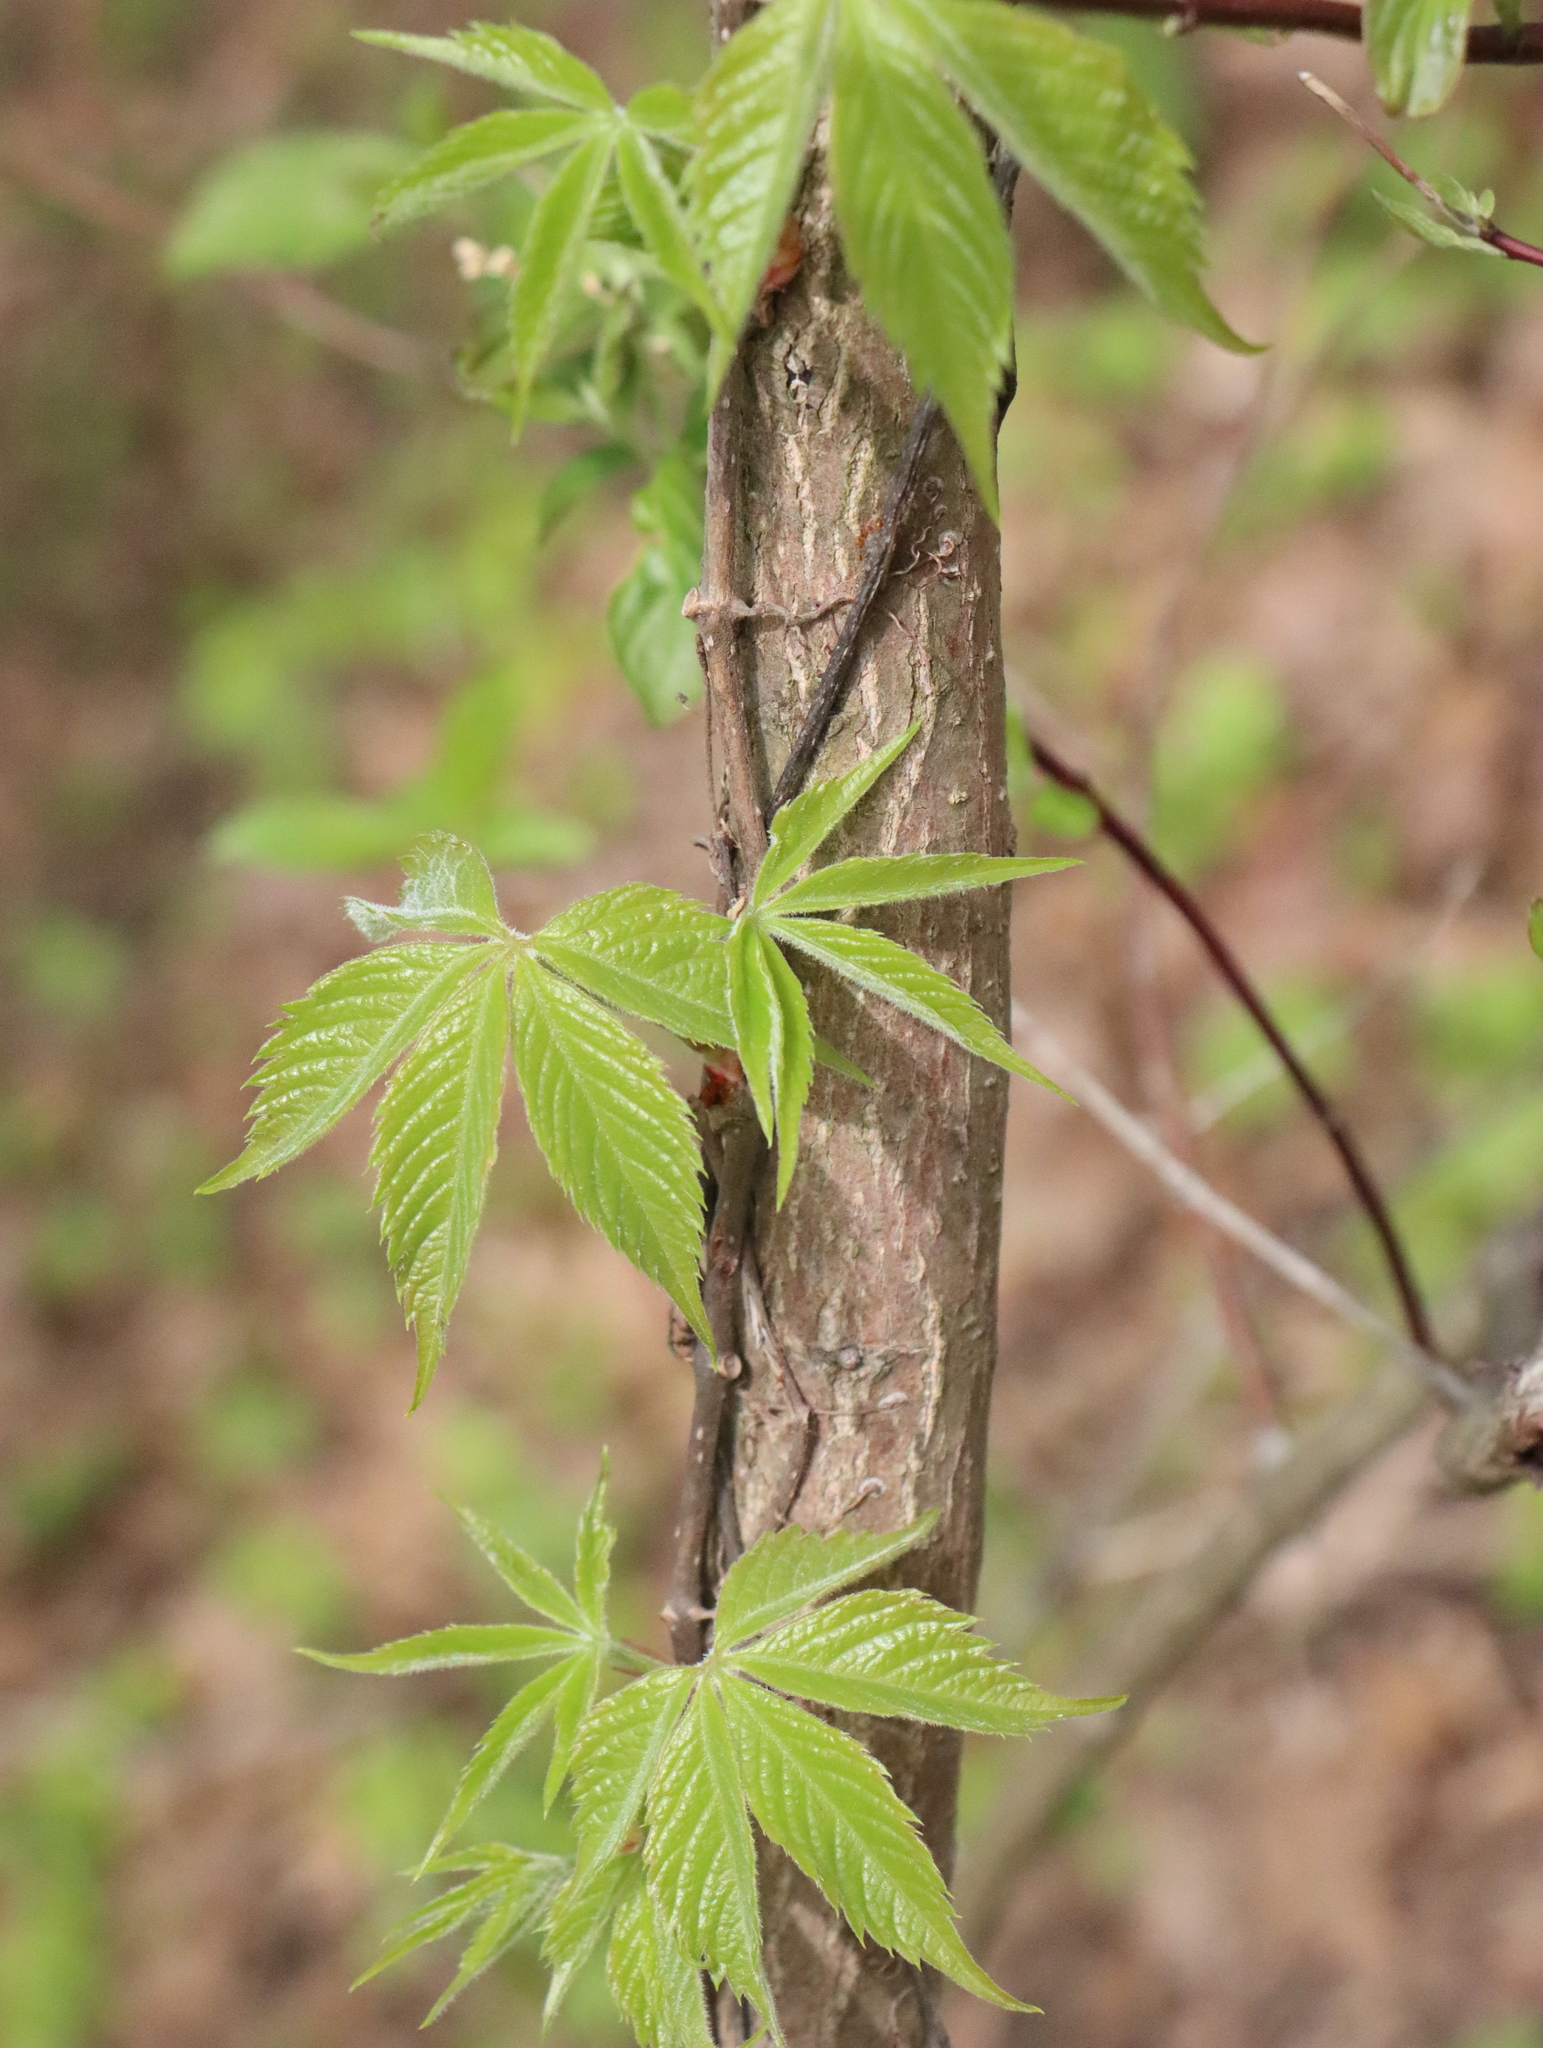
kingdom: Plantae
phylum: Tracheophyta
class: Magnoliopsida
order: Vitales
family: Vitaceae
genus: Parthenocissus
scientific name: Parthenocissus quinquefolia
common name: Virginia-creeper
